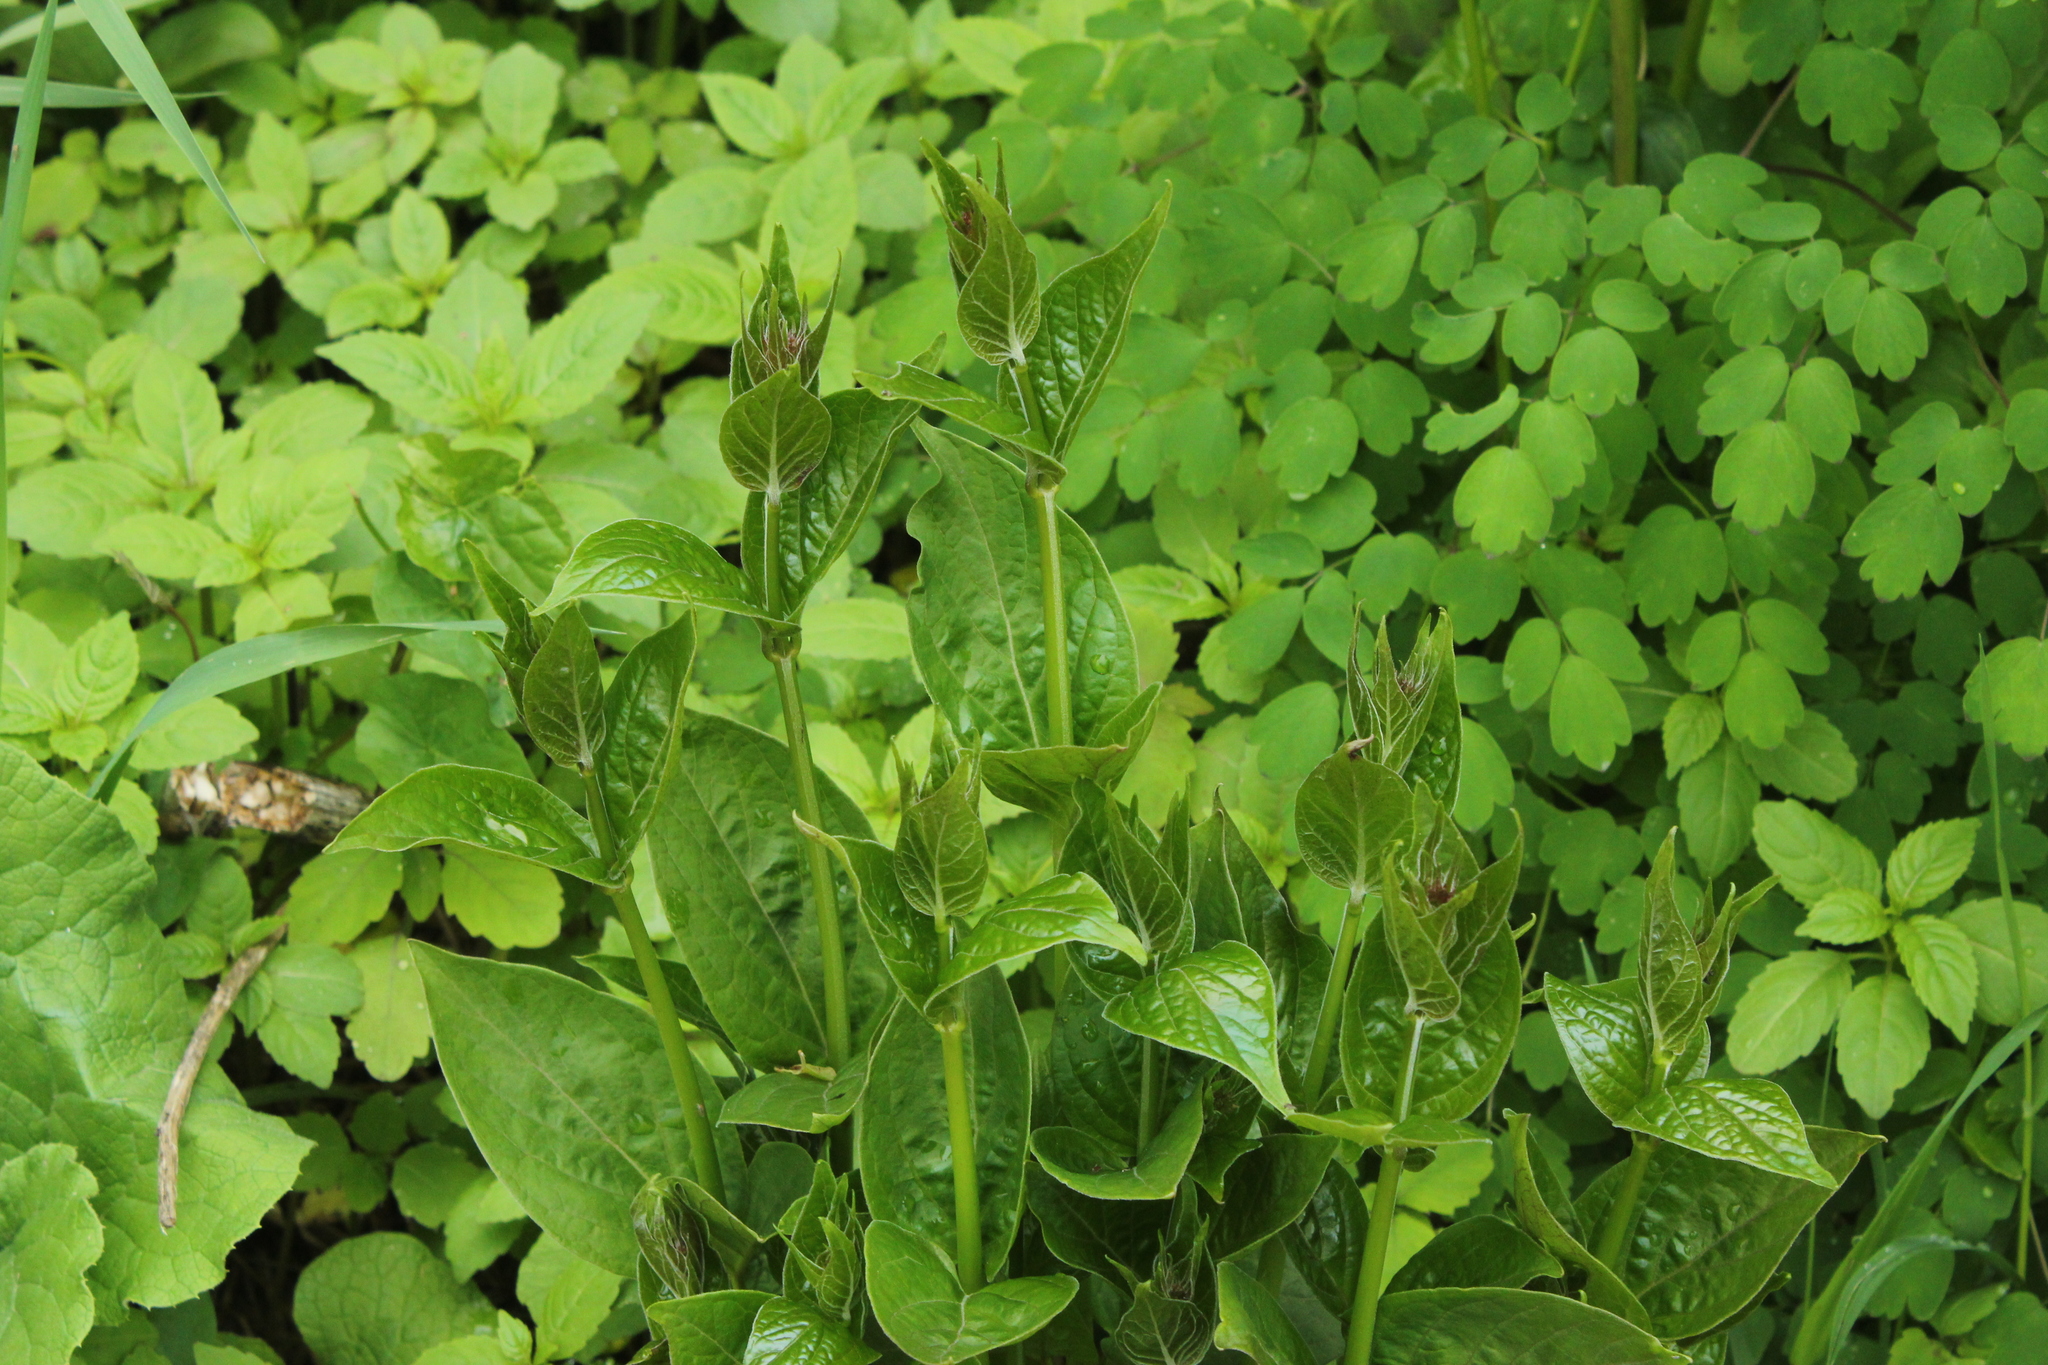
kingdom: Plantae
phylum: Tracheophyta
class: Magnoliopsida
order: Gentianales
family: Apocynaceae
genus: Vincetoxicum
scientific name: Vincetoxicum rossicum
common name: Dog-strangling vine
